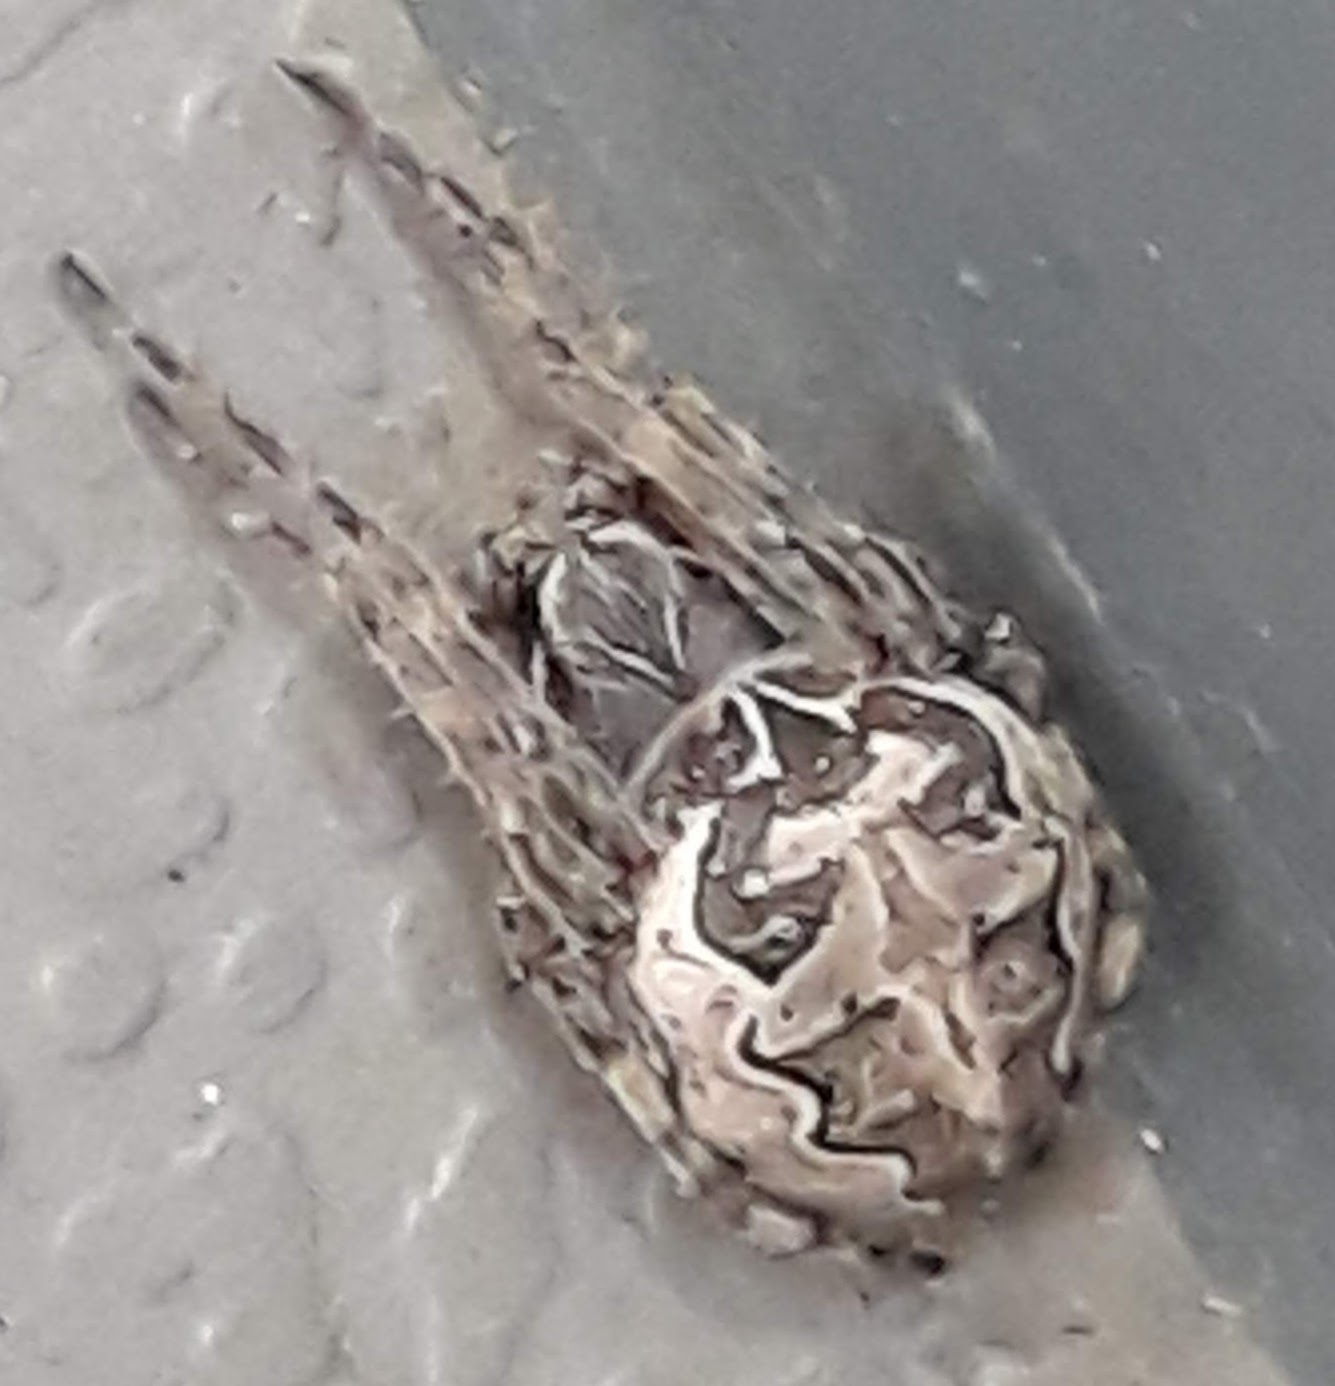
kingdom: Animalia
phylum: Arthropoda
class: Arachnida
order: Araneae
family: Araneidae
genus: Larinioides
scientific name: Larinioides sclopetarius
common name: Bridge orbweaver
